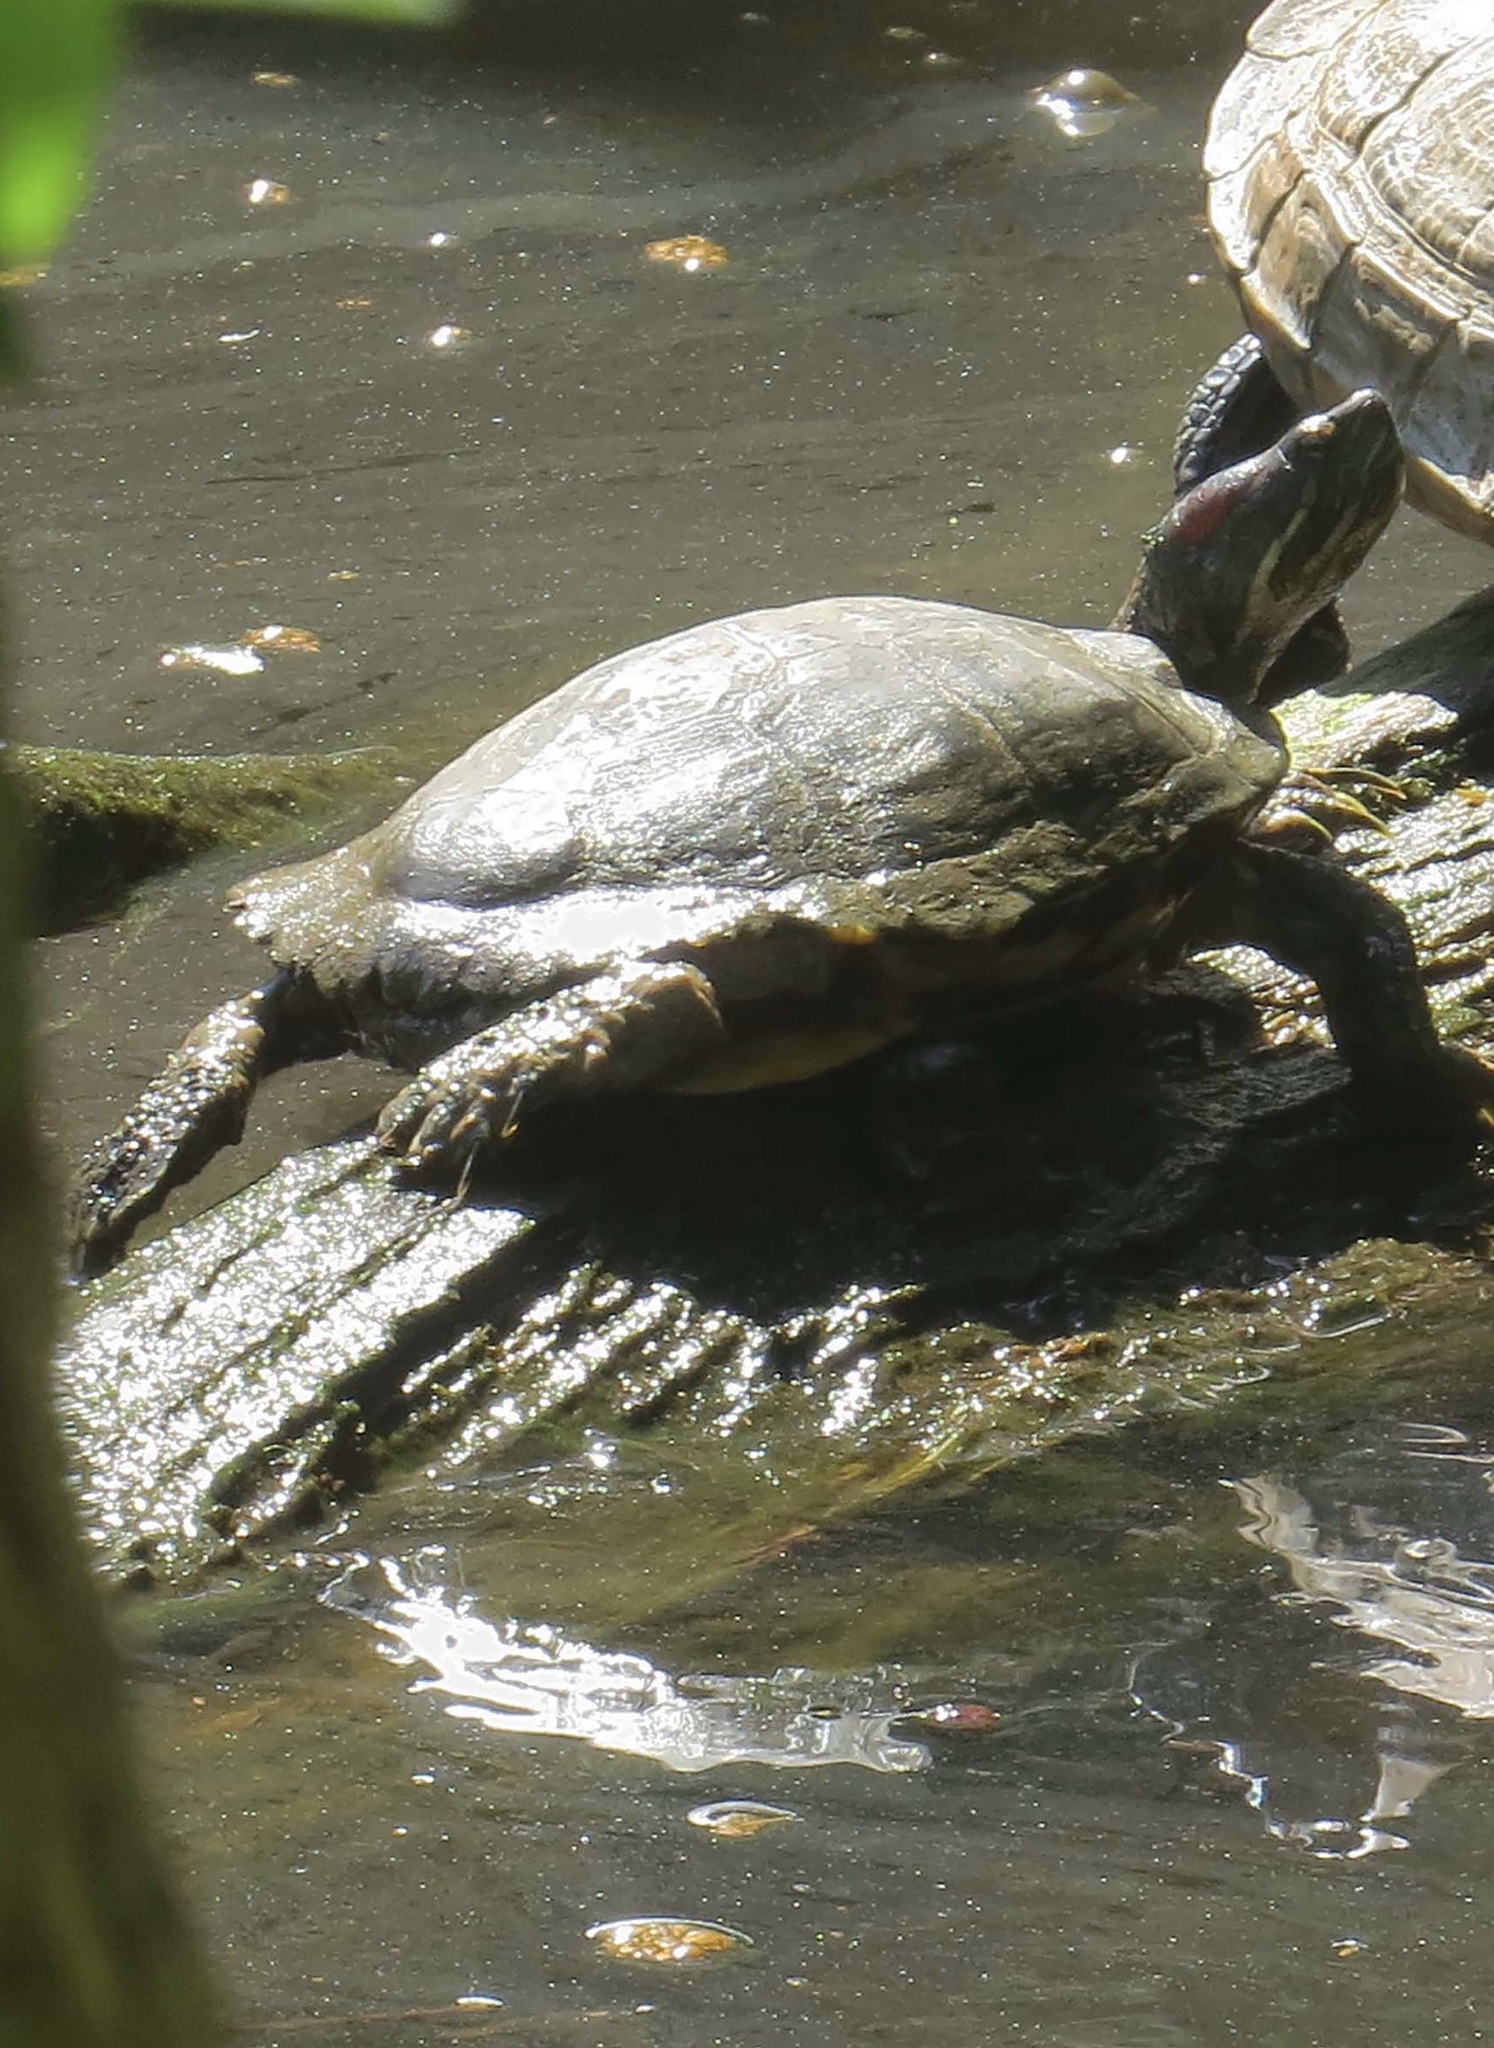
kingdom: Animalia
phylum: Chordata
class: Testudines
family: Emydidae
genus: Trachemys
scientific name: Trachemys scripta
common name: Slider
